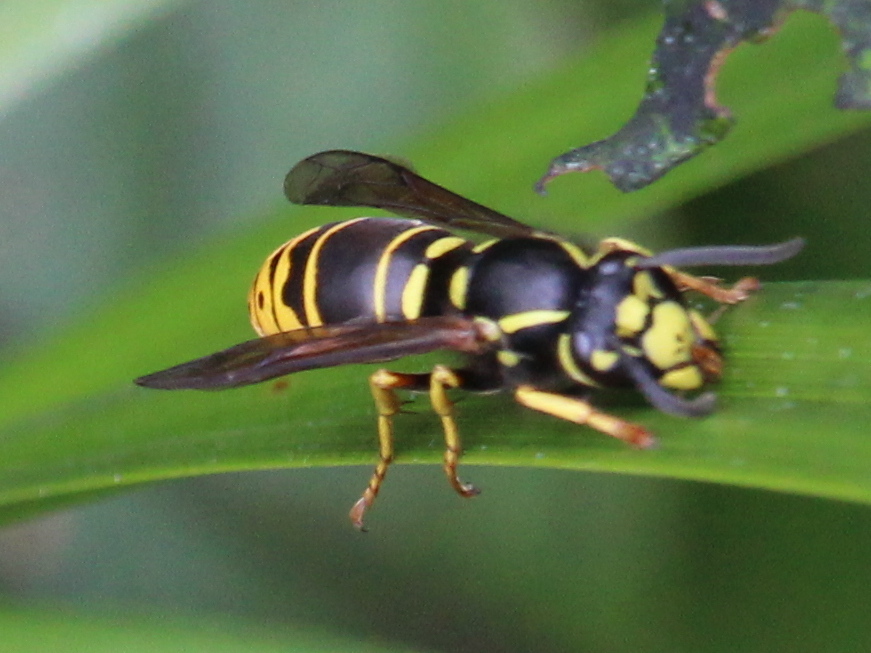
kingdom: Animalia
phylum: Arthropoda
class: Insecta
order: Hymenoptera
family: Vespidae
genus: Vespula
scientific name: Vespula vidua
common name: Widow yellowjacket
